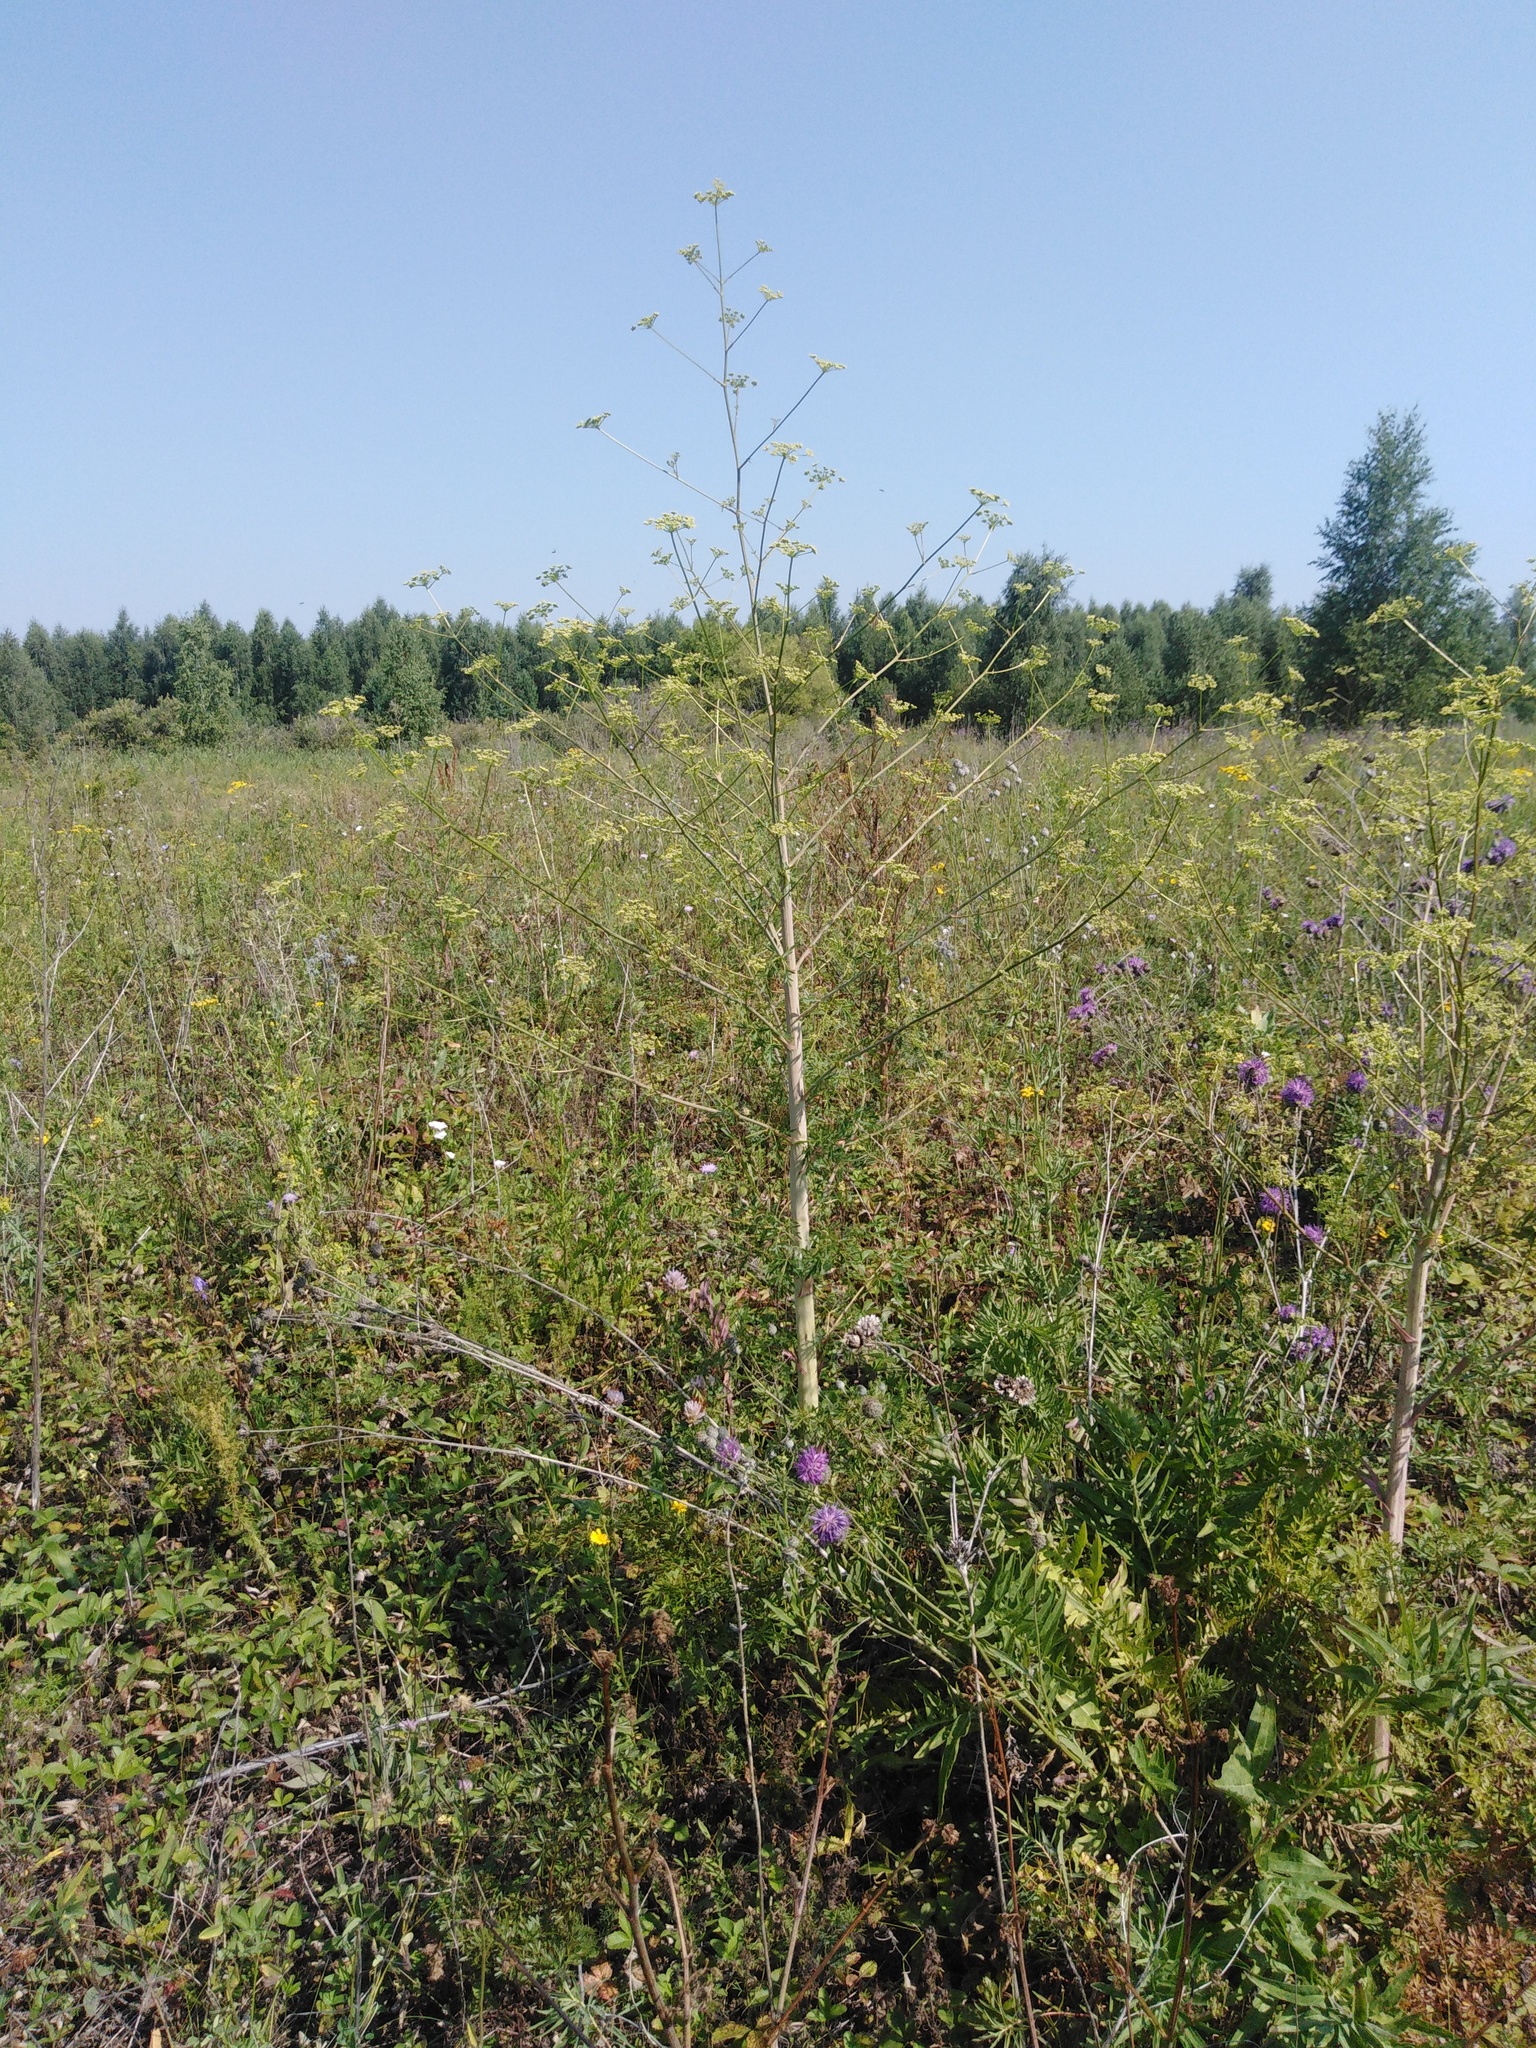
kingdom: Plantae
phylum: Tracheophyta
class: Magnoliopsida
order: Apiales
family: Apiaceae
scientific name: Apiaceae
